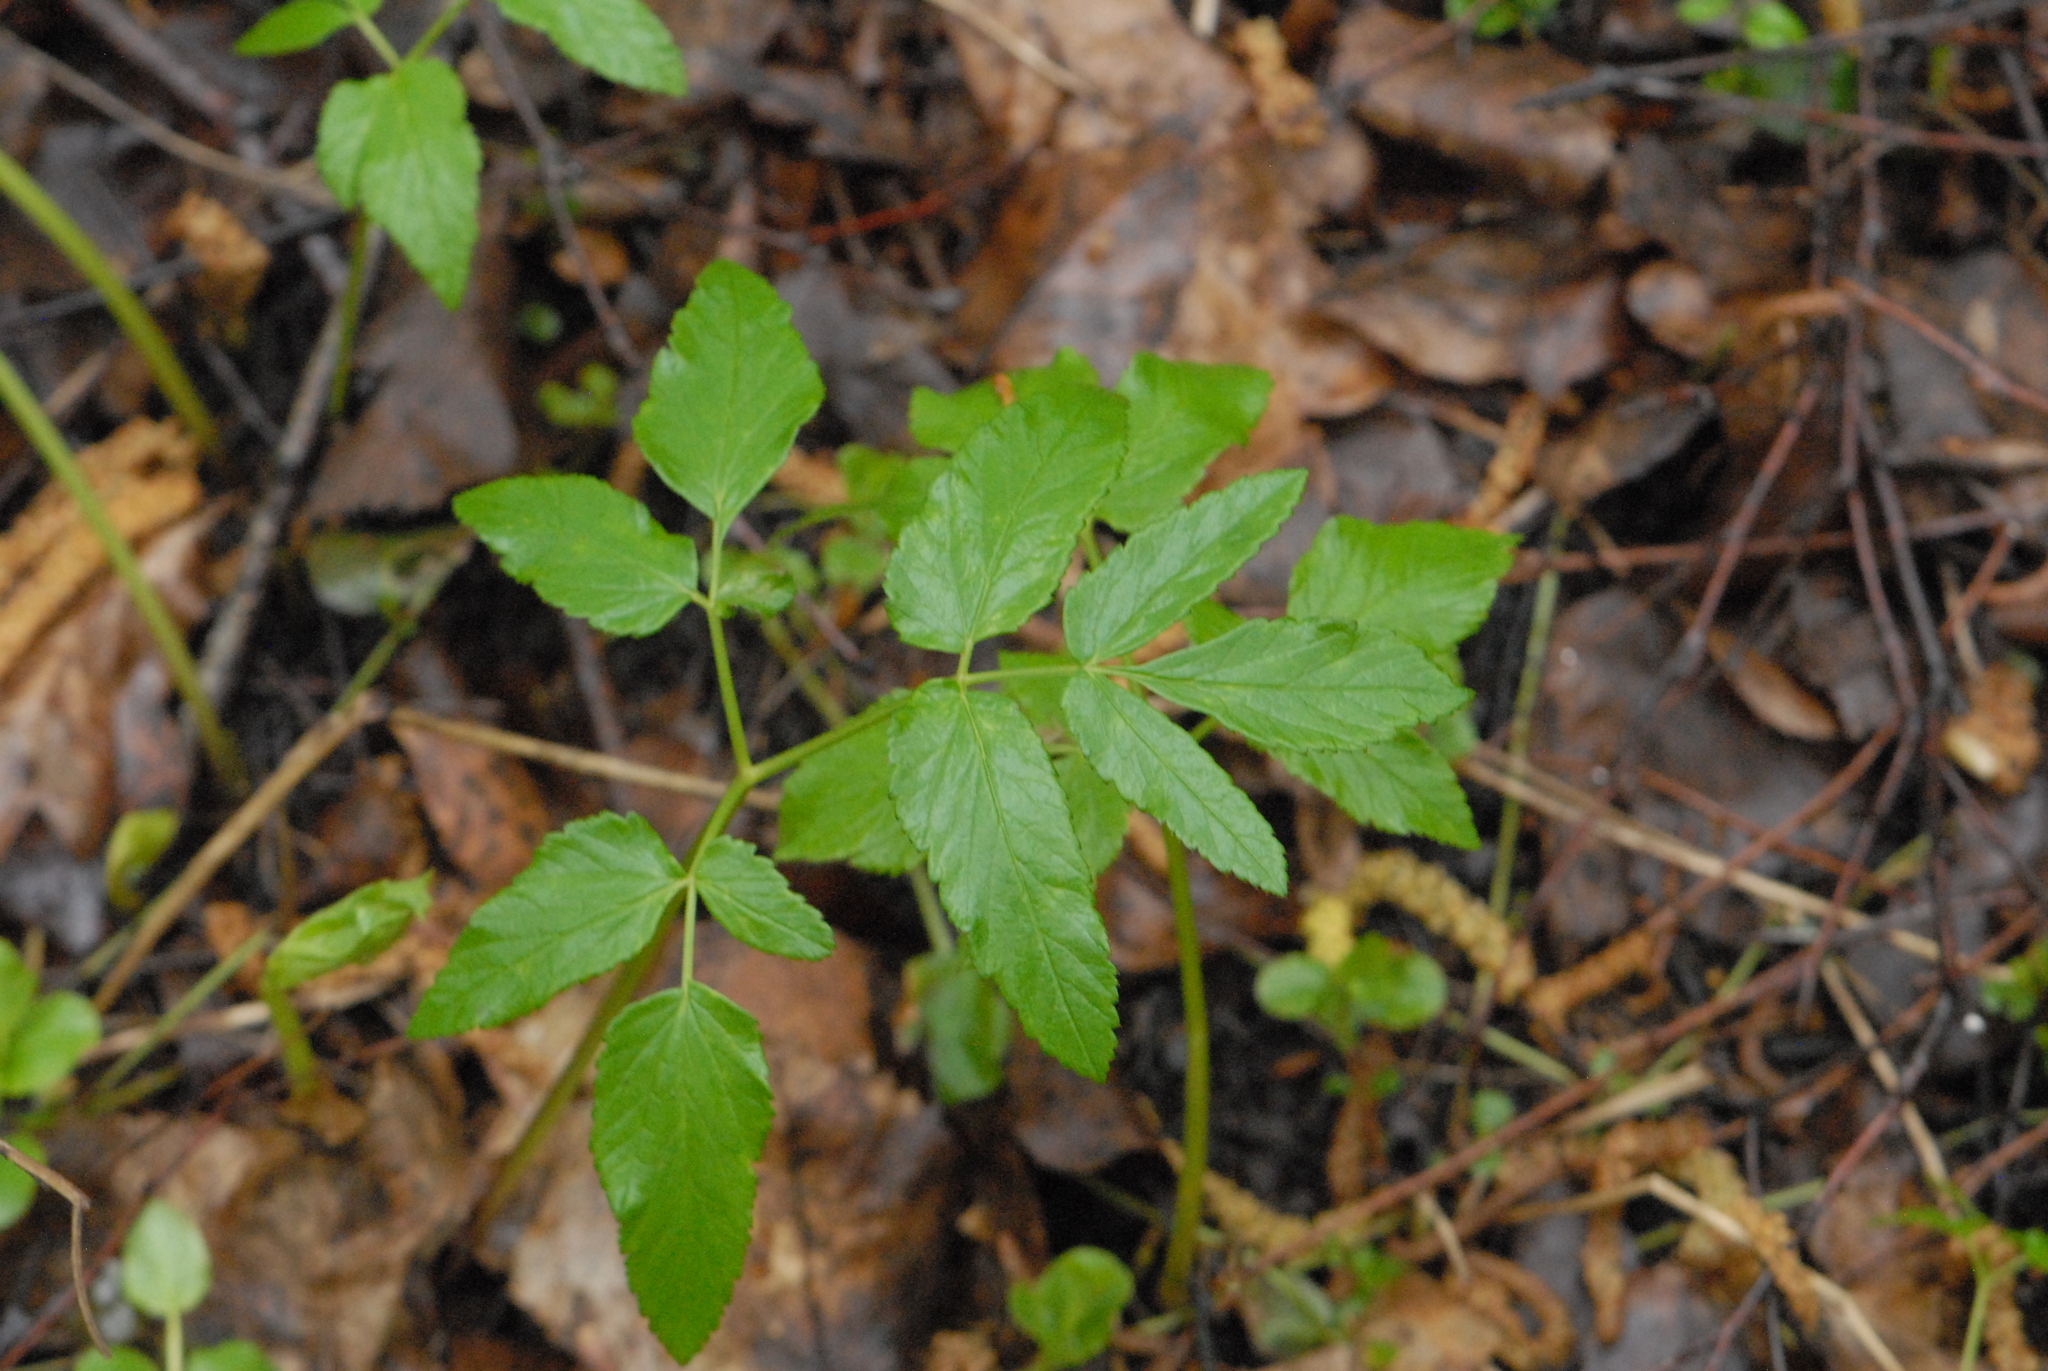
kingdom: Plantae
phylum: Tracheophyta
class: Magnoliopsida
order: Apiales
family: Apiaceae
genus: Aegopodium
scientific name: Aegopodium podagraria
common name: Ground-elder
